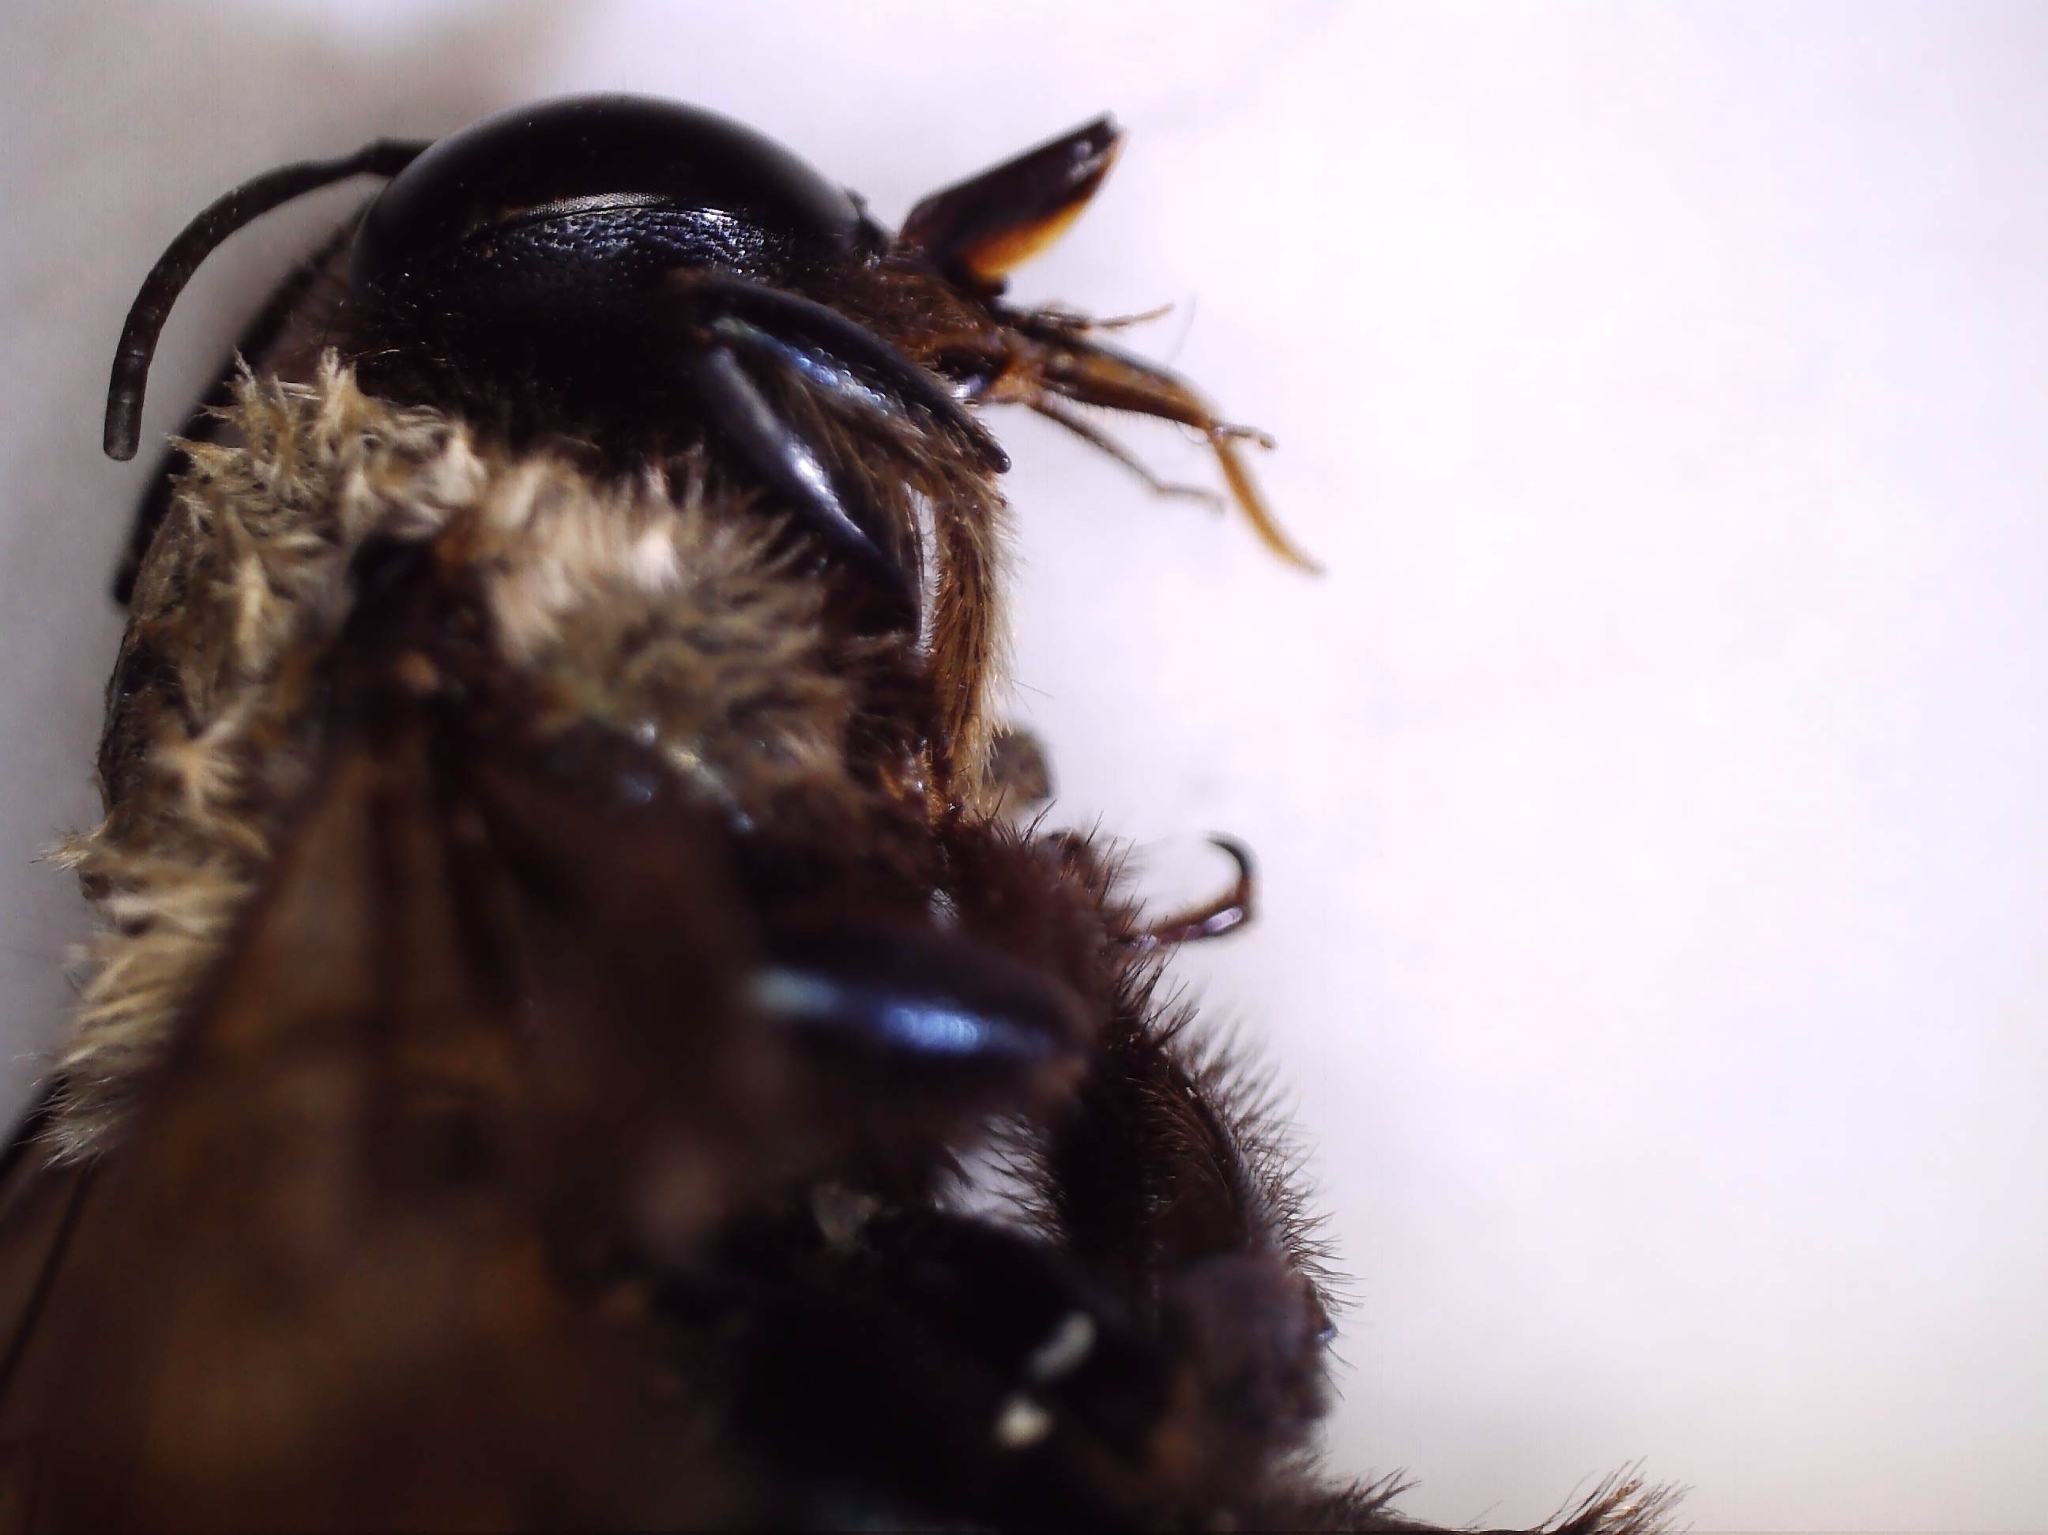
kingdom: Animalia
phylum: Arthropoda
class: Insecta
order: Hymenoptera
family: Apidae
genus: Xylocopa
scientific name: Xylocopa virginica
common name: Carpenter bee
